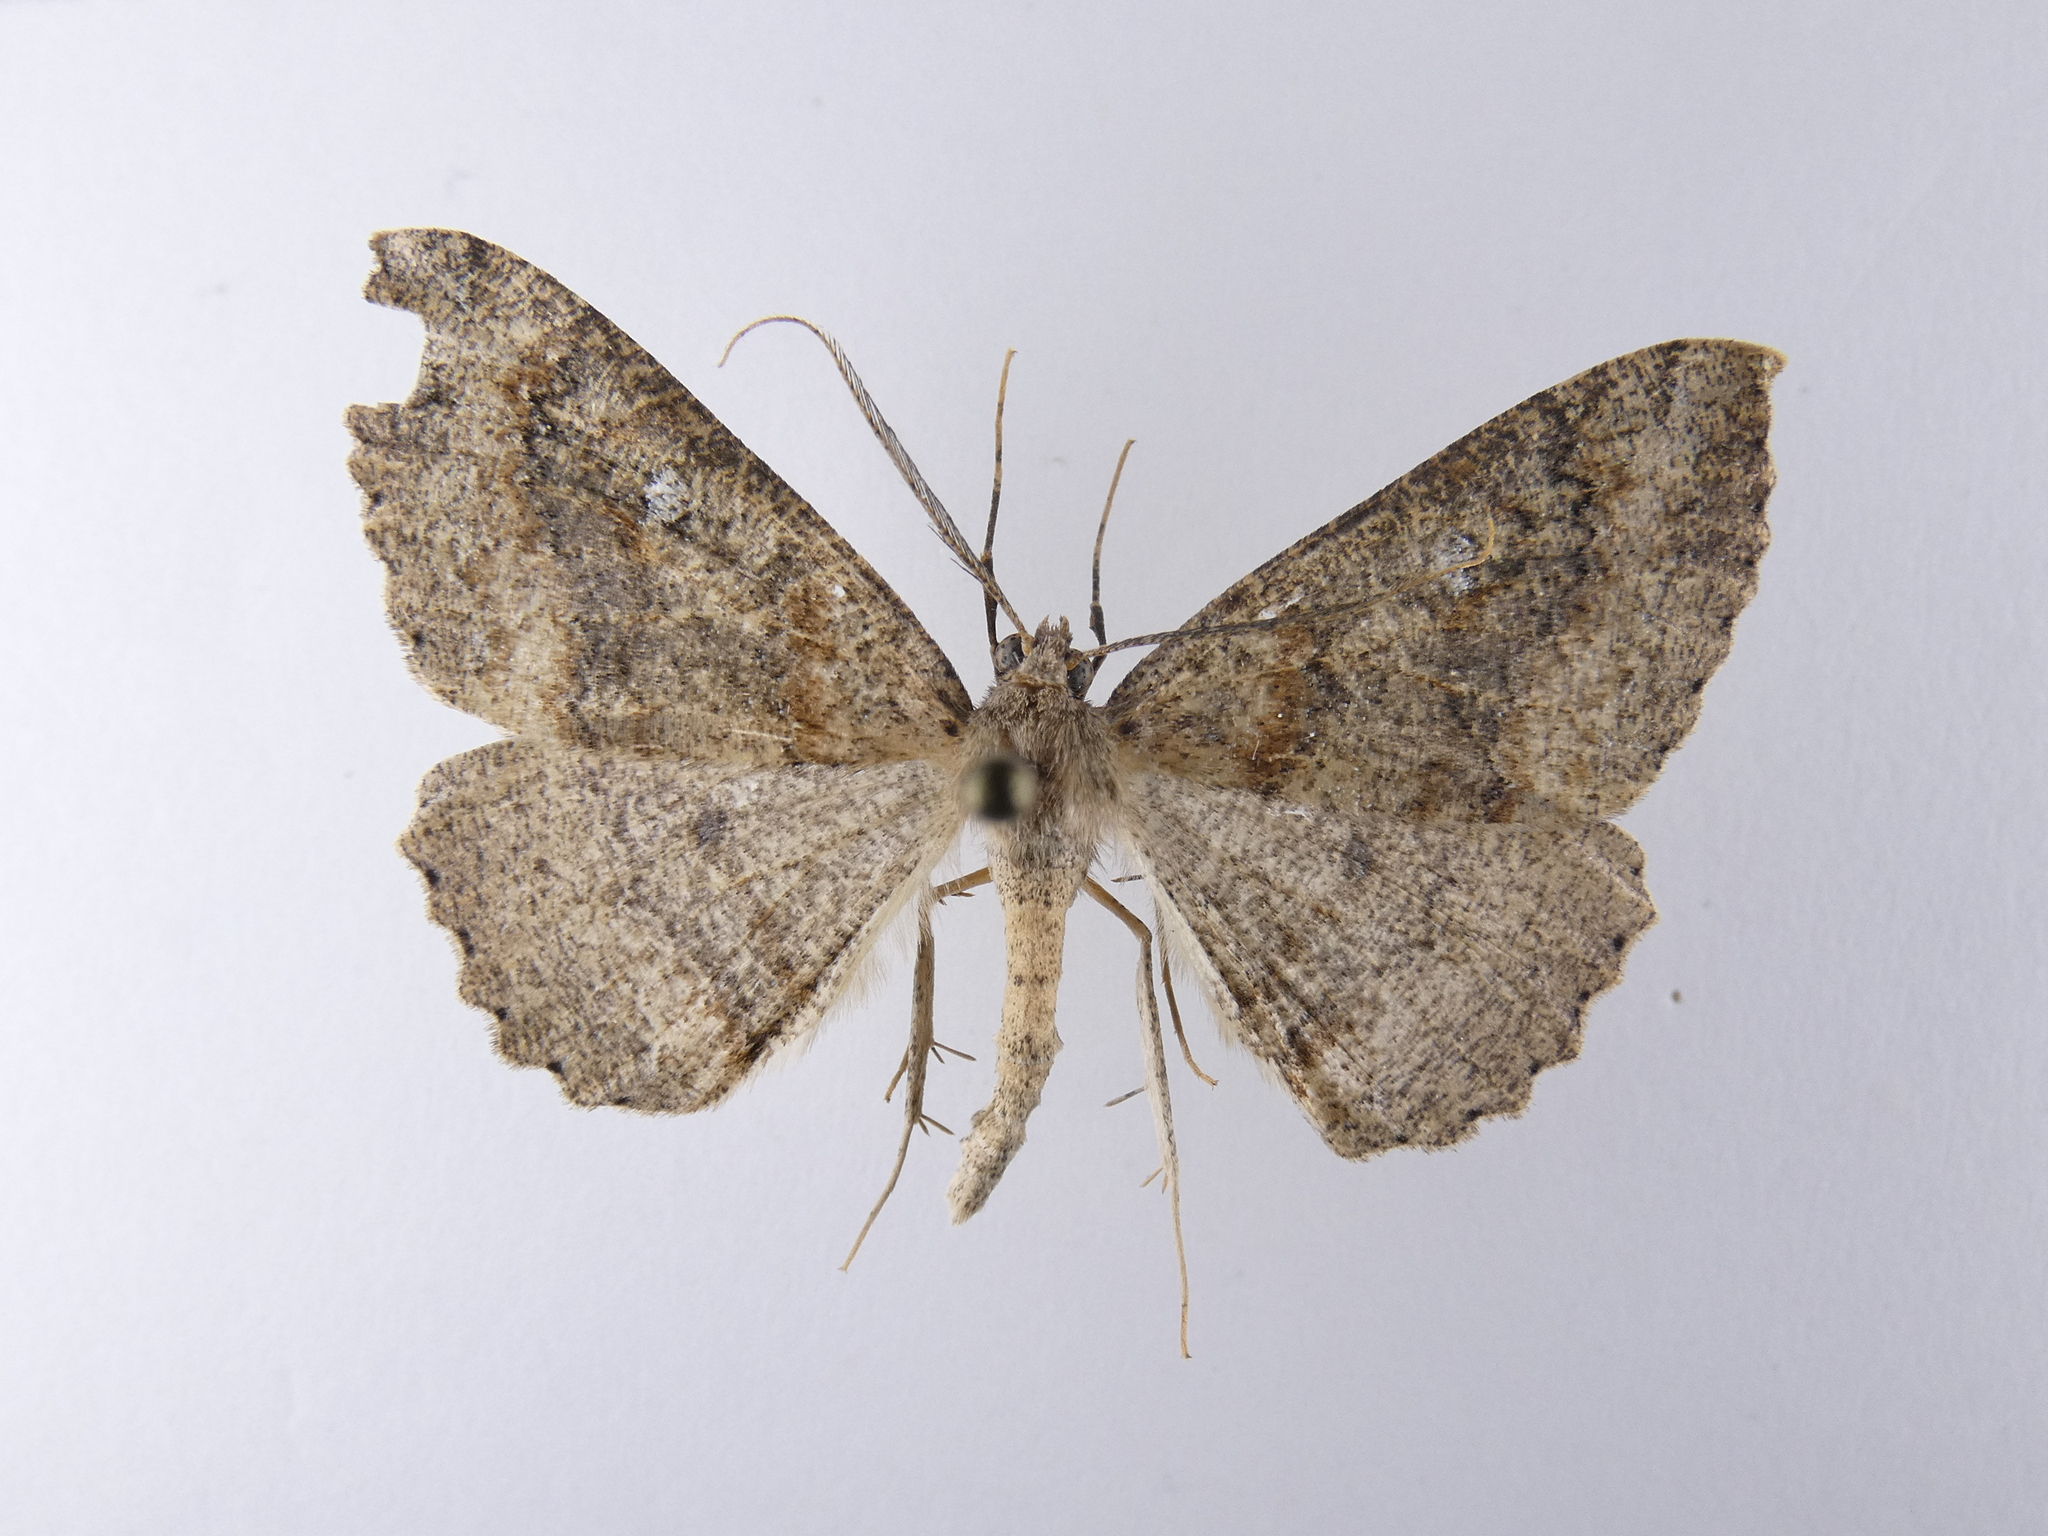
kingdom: Animalia
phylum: Arthropoda
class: Insecta
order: Lepidoptera
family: Geometridae
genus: Cleora
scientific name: Cleora scriptaria
